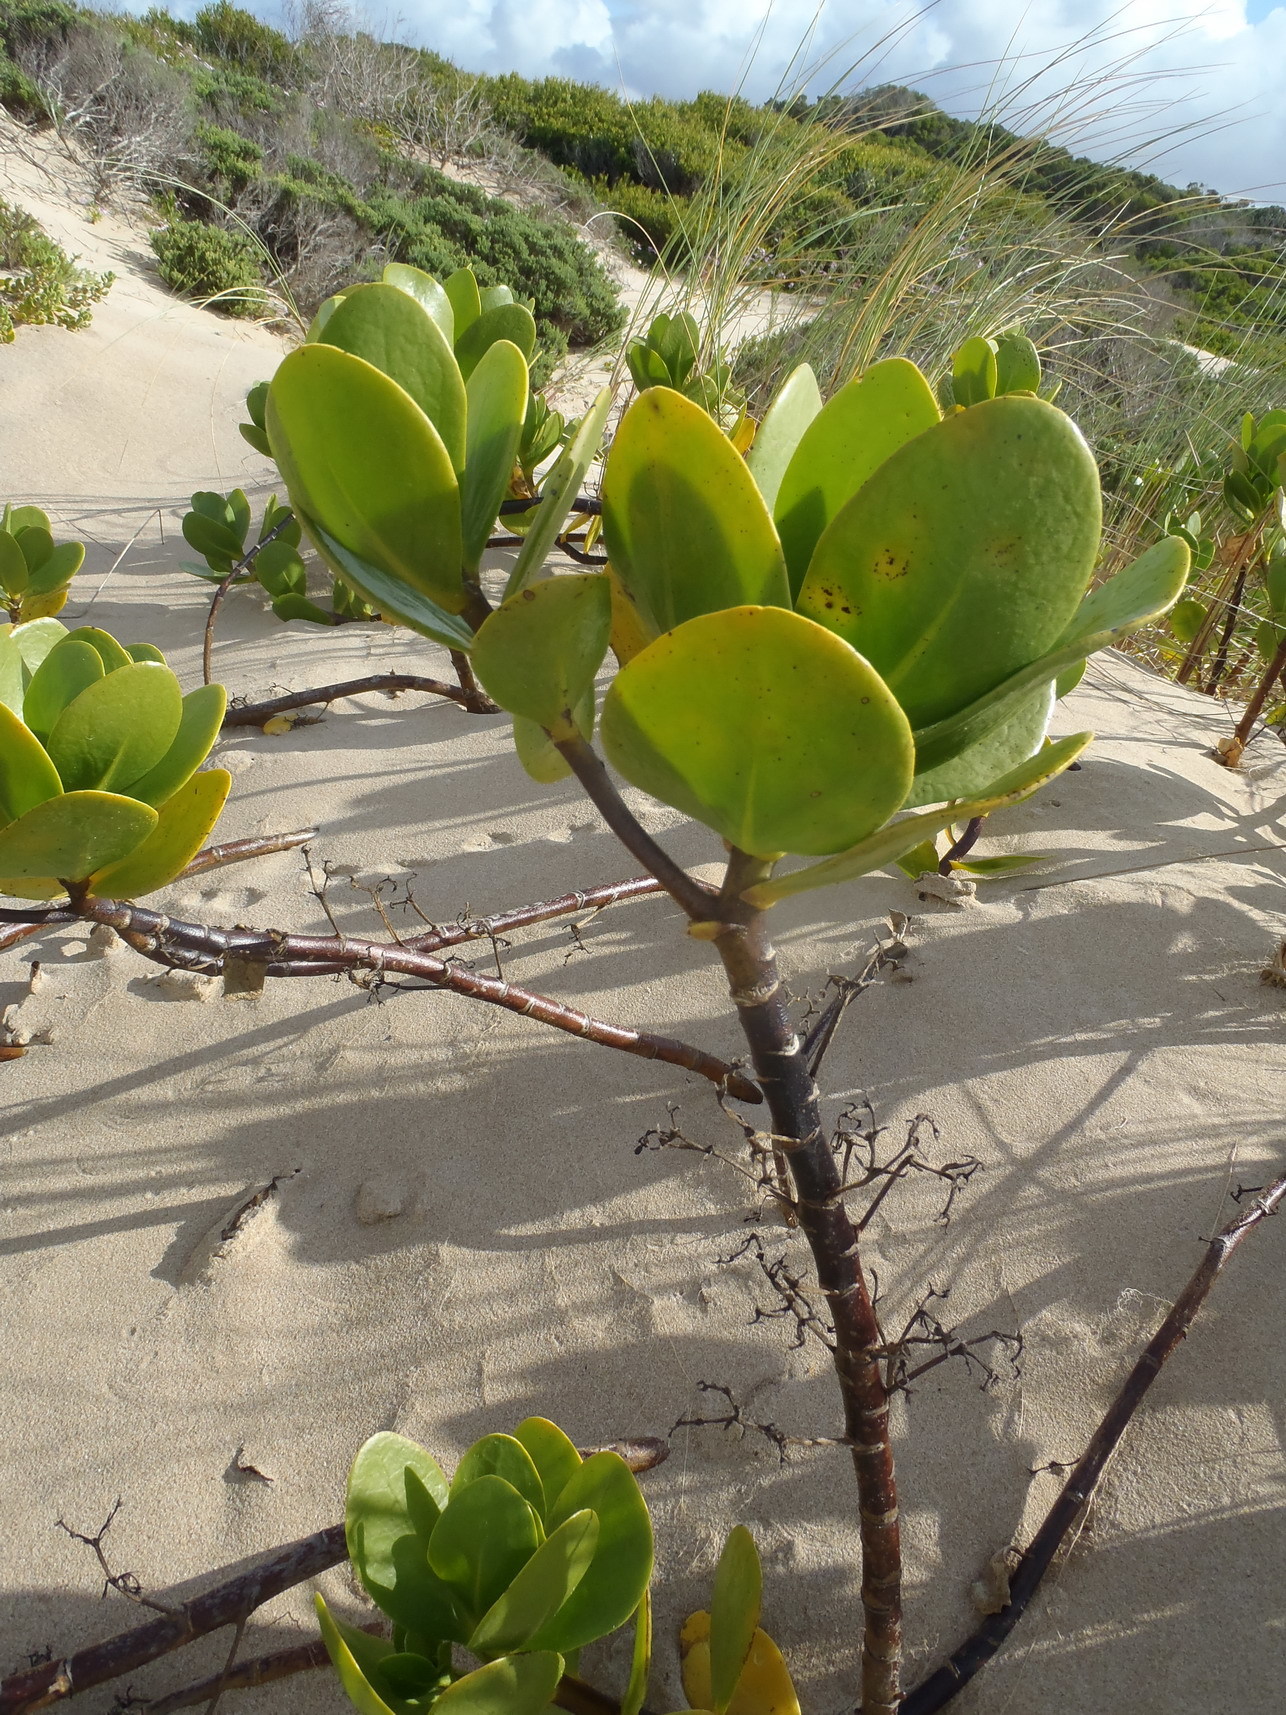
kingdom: Plantae
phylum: Tracheophyta
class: Magnoliopsida
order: Asterales
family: Goodeniaceae
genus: Scaevola
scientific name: Scaevola plumieri
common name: Gull feed
